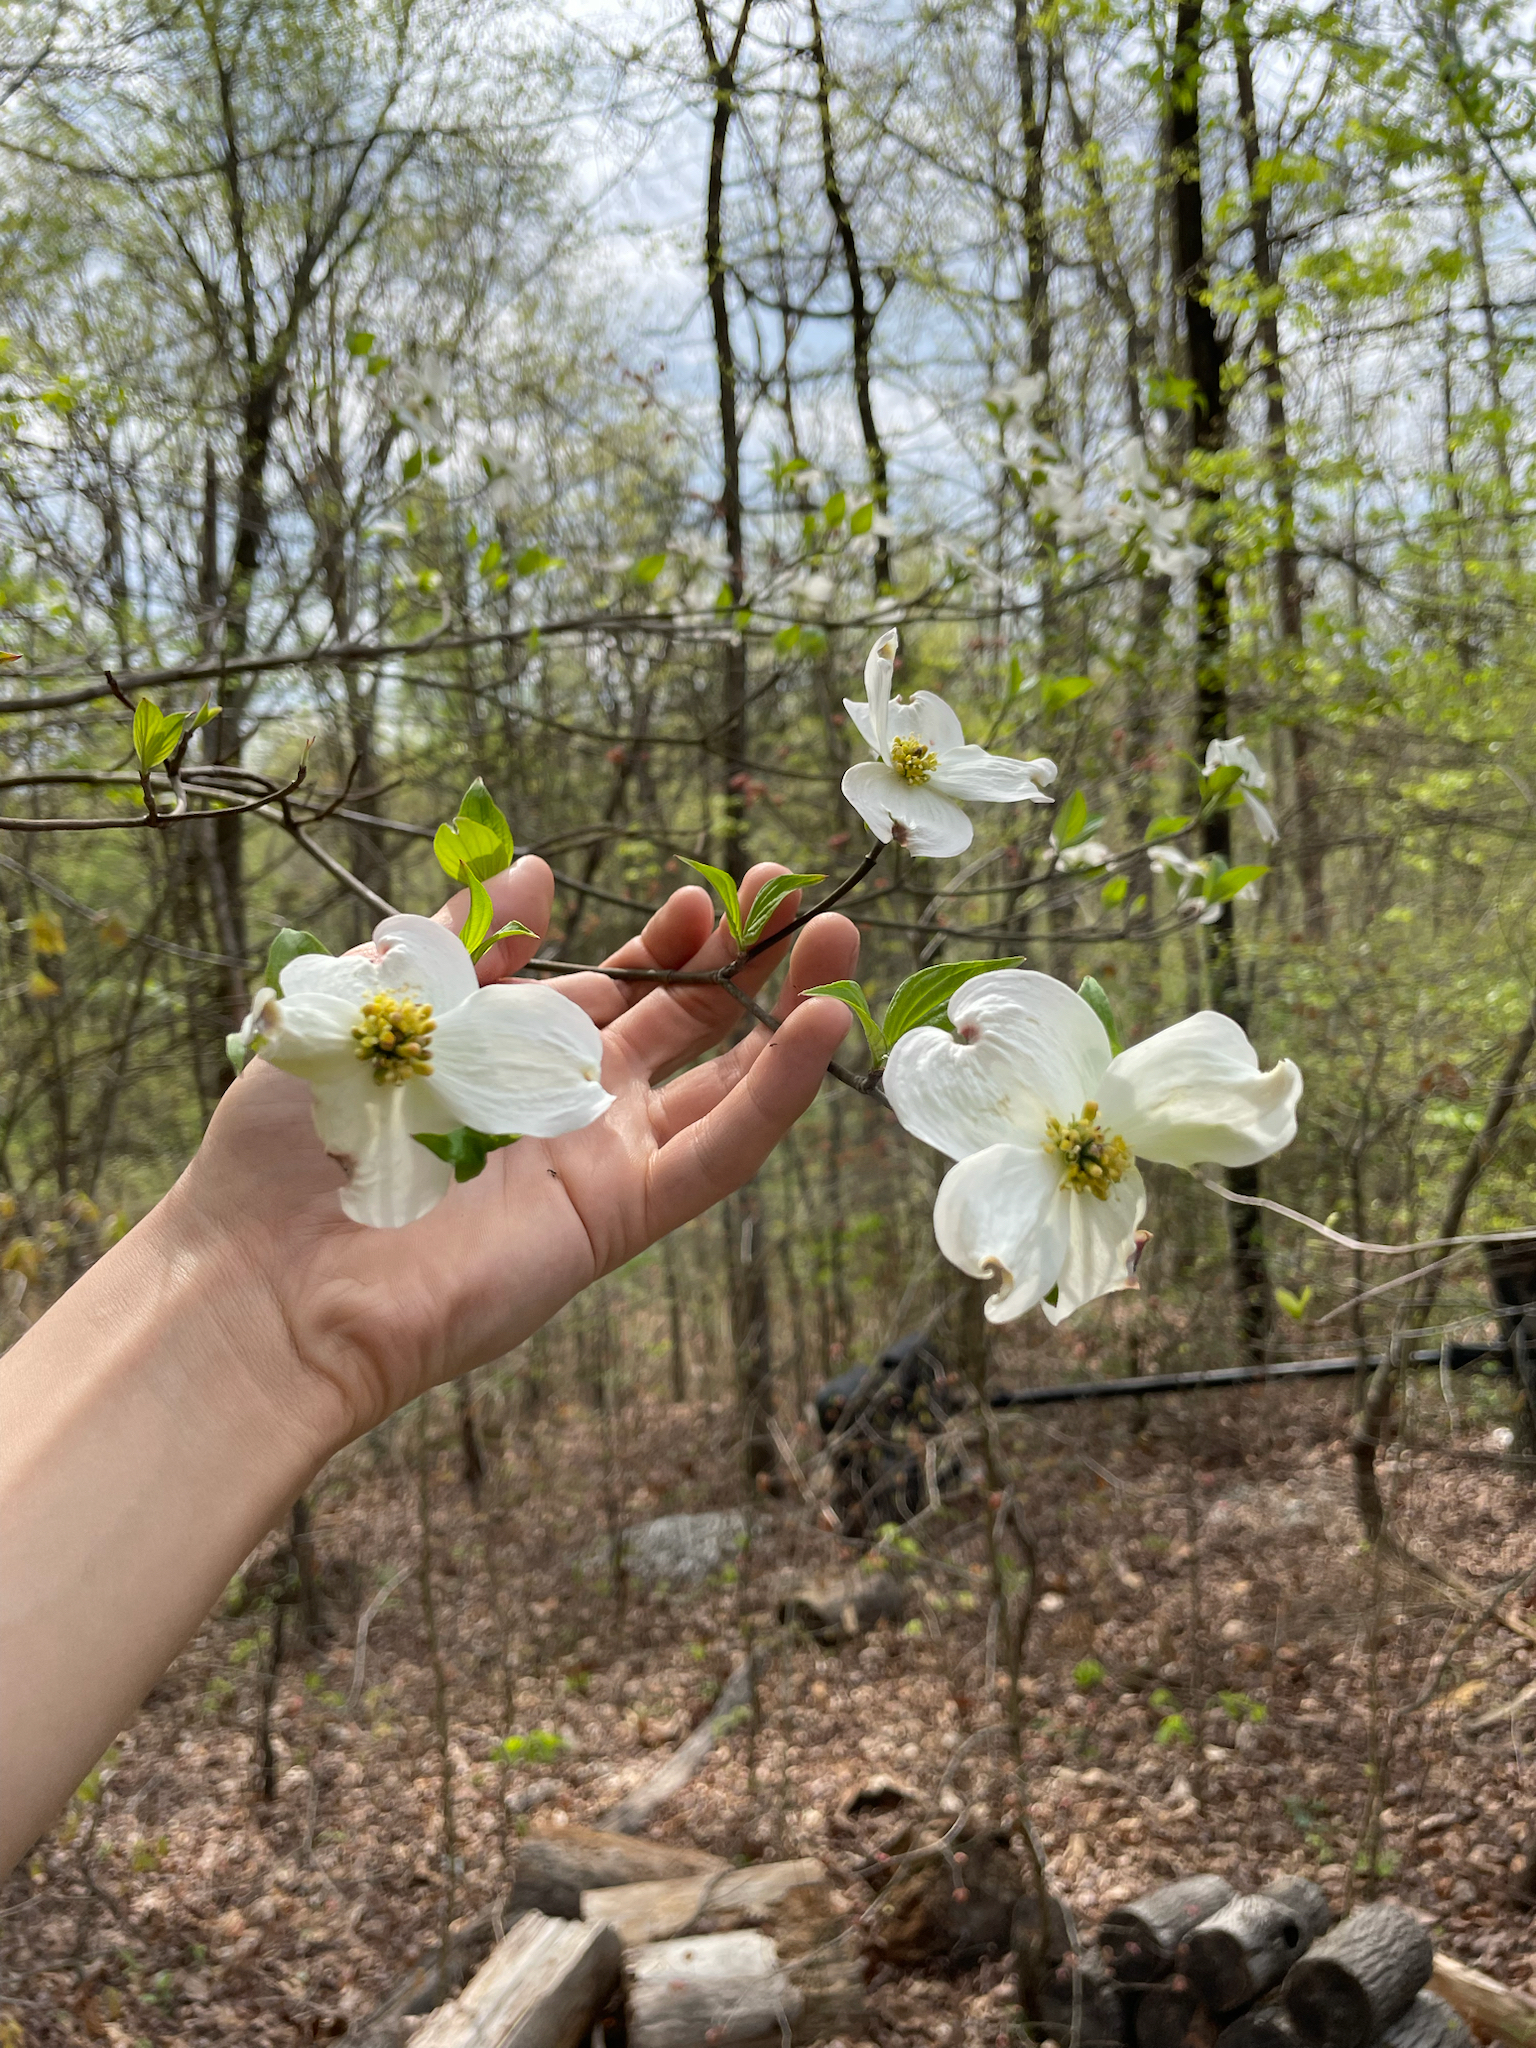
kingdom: Plantae
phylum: Tracheophyta
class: Magnoliopsida
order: Cornales
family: Cornaceae
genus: Cornus
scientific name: Cornus florida
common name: Flowering dogwood
